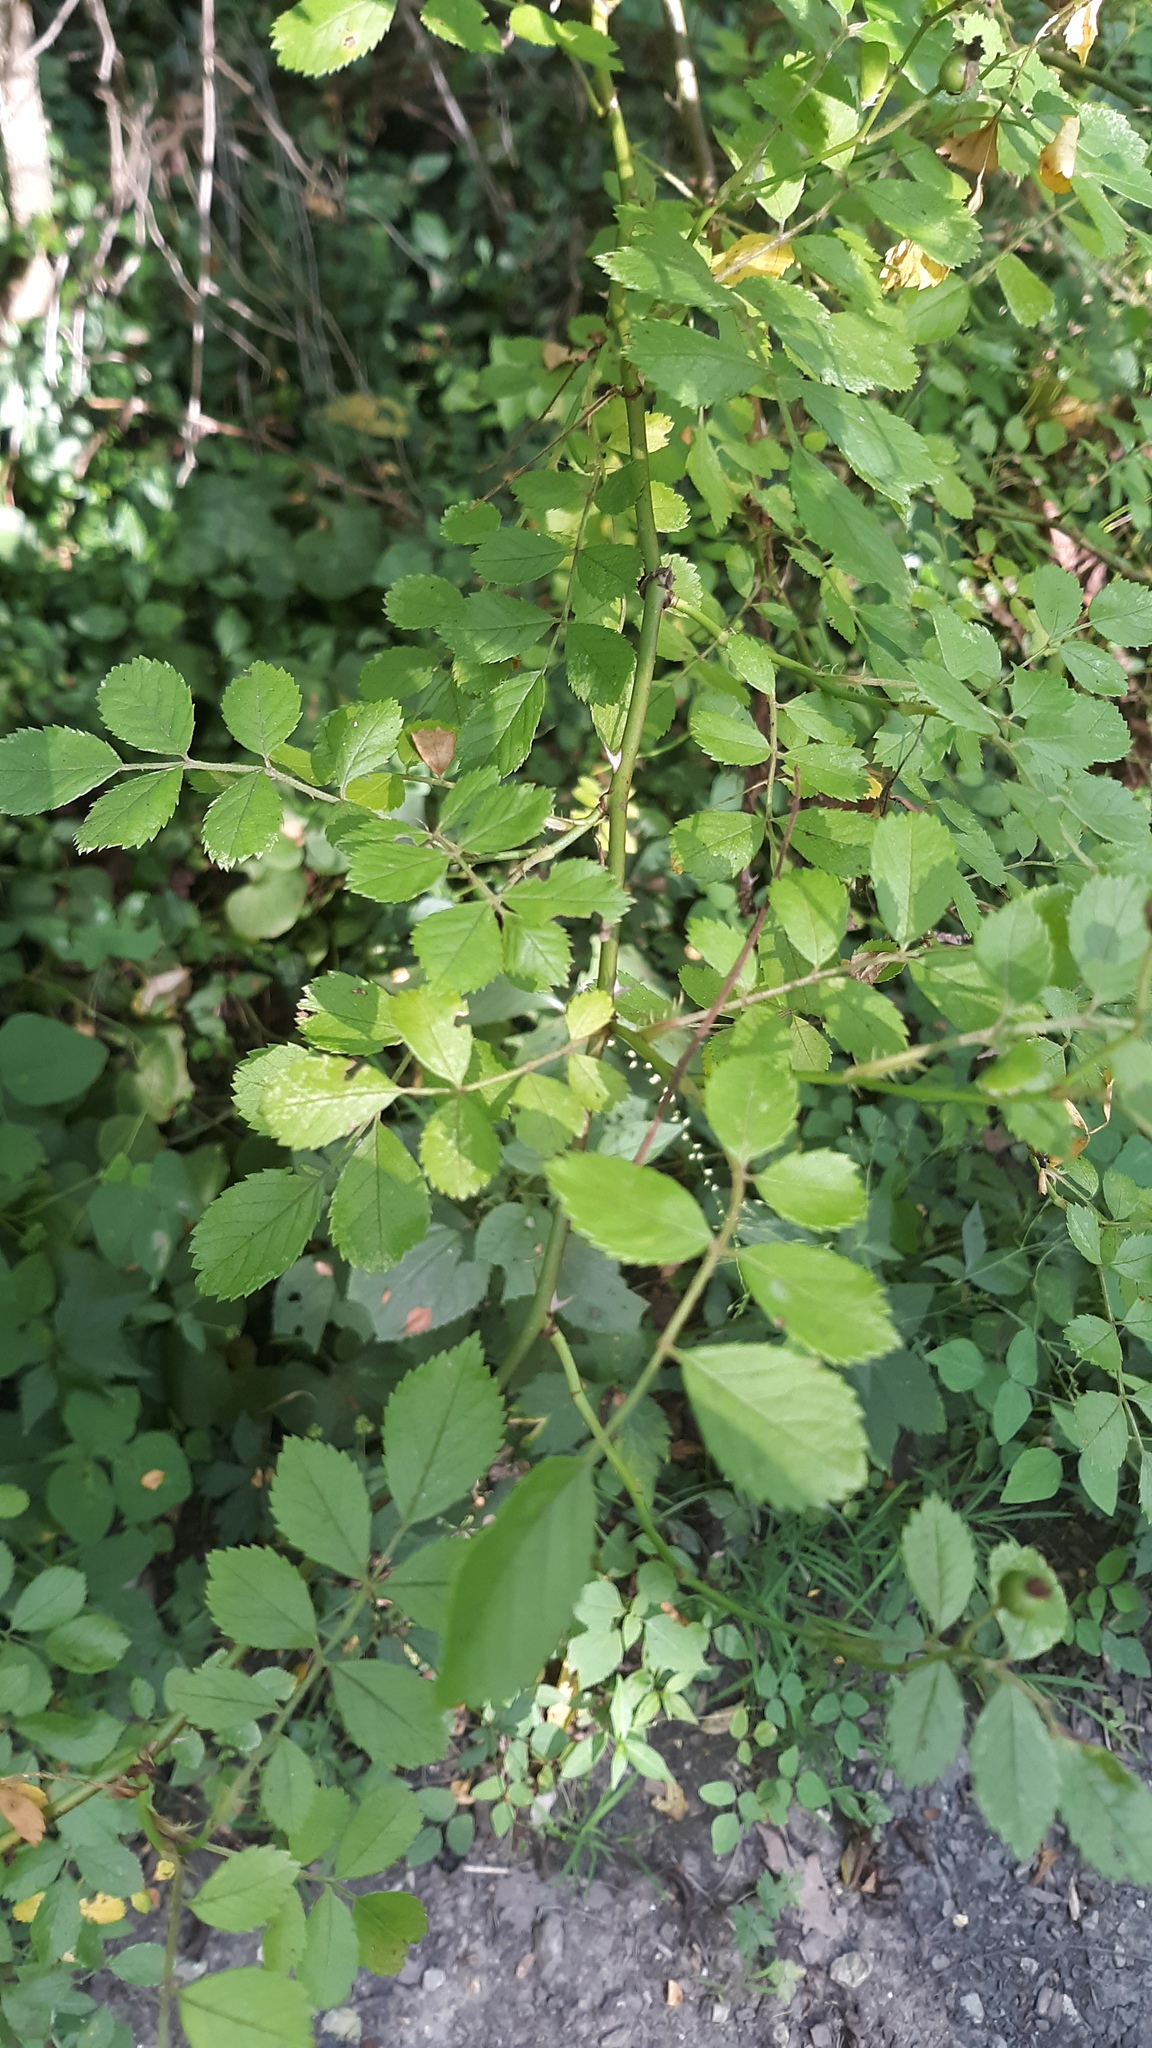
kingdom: Plantae
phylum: Tracheophyta
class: Magnoliopsida
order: Rosales
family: Rosaceae
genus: Rosa
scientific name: Rosa multiflora
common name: Multiflora rose
